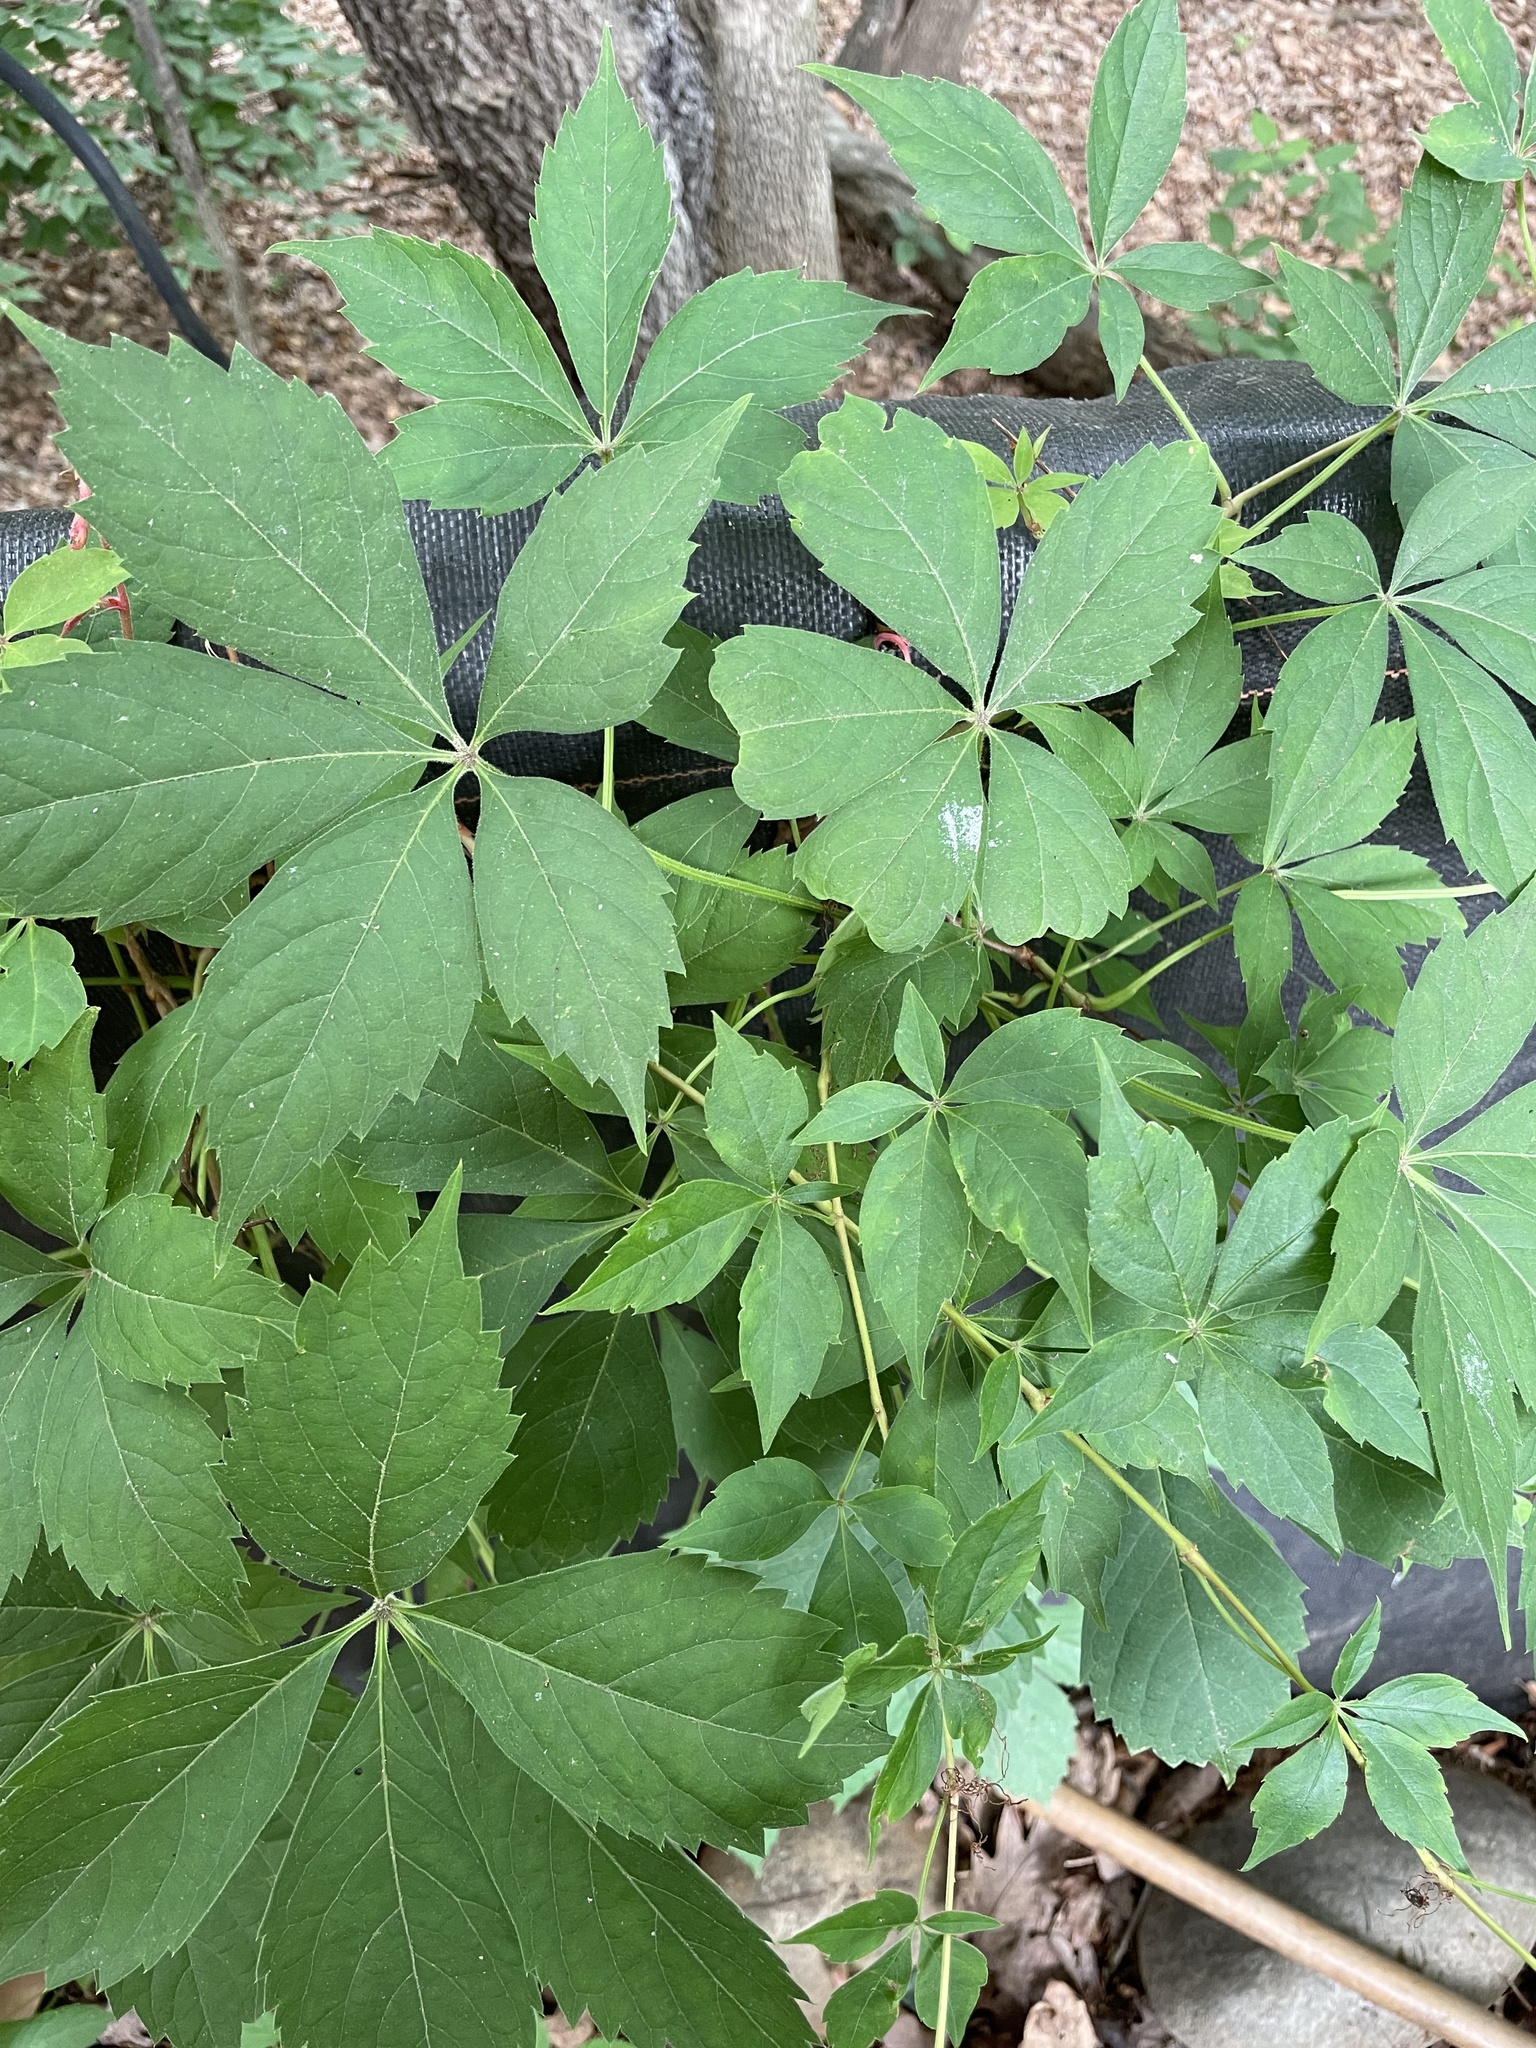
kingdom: Plantae
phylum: Tracheophyta
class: Magnoliopsida
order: Vitales
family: Vitaceae
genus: Parthenocissus
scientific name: Parthenocissus quinquefolia
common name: Virginia-creeper
